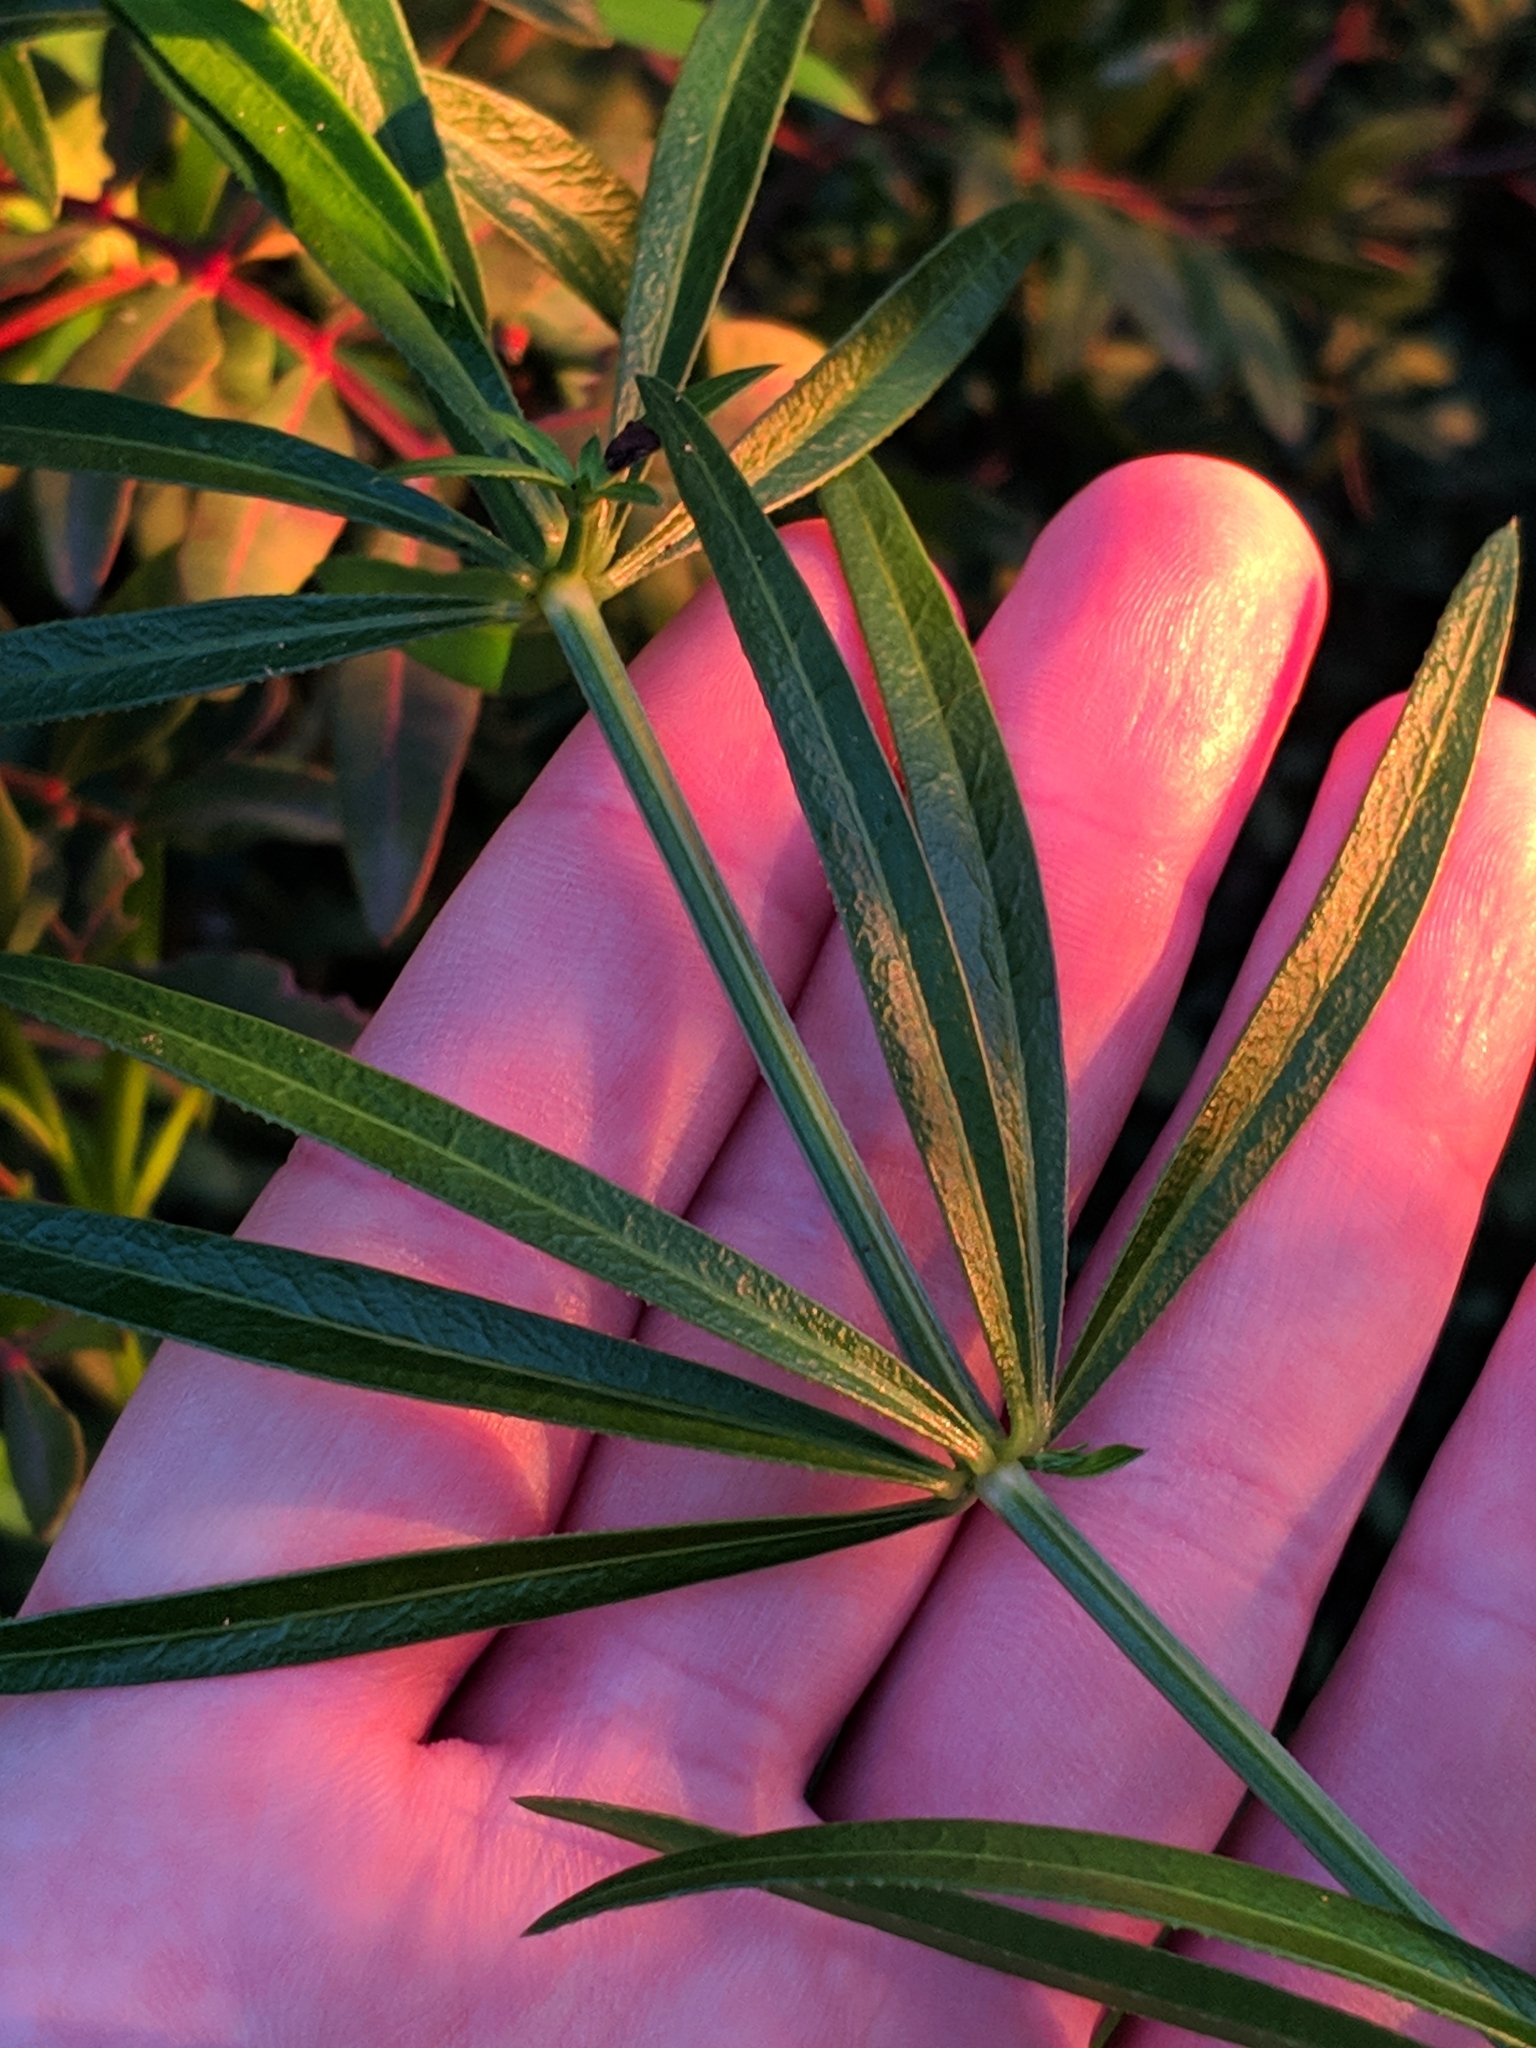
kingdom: Plantae
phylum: Tracheophyta
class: Magnoliopsida
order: Gentianales
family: Rubiaceae
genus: Rubia
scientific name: Rubia peregrina
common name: Wild madder
